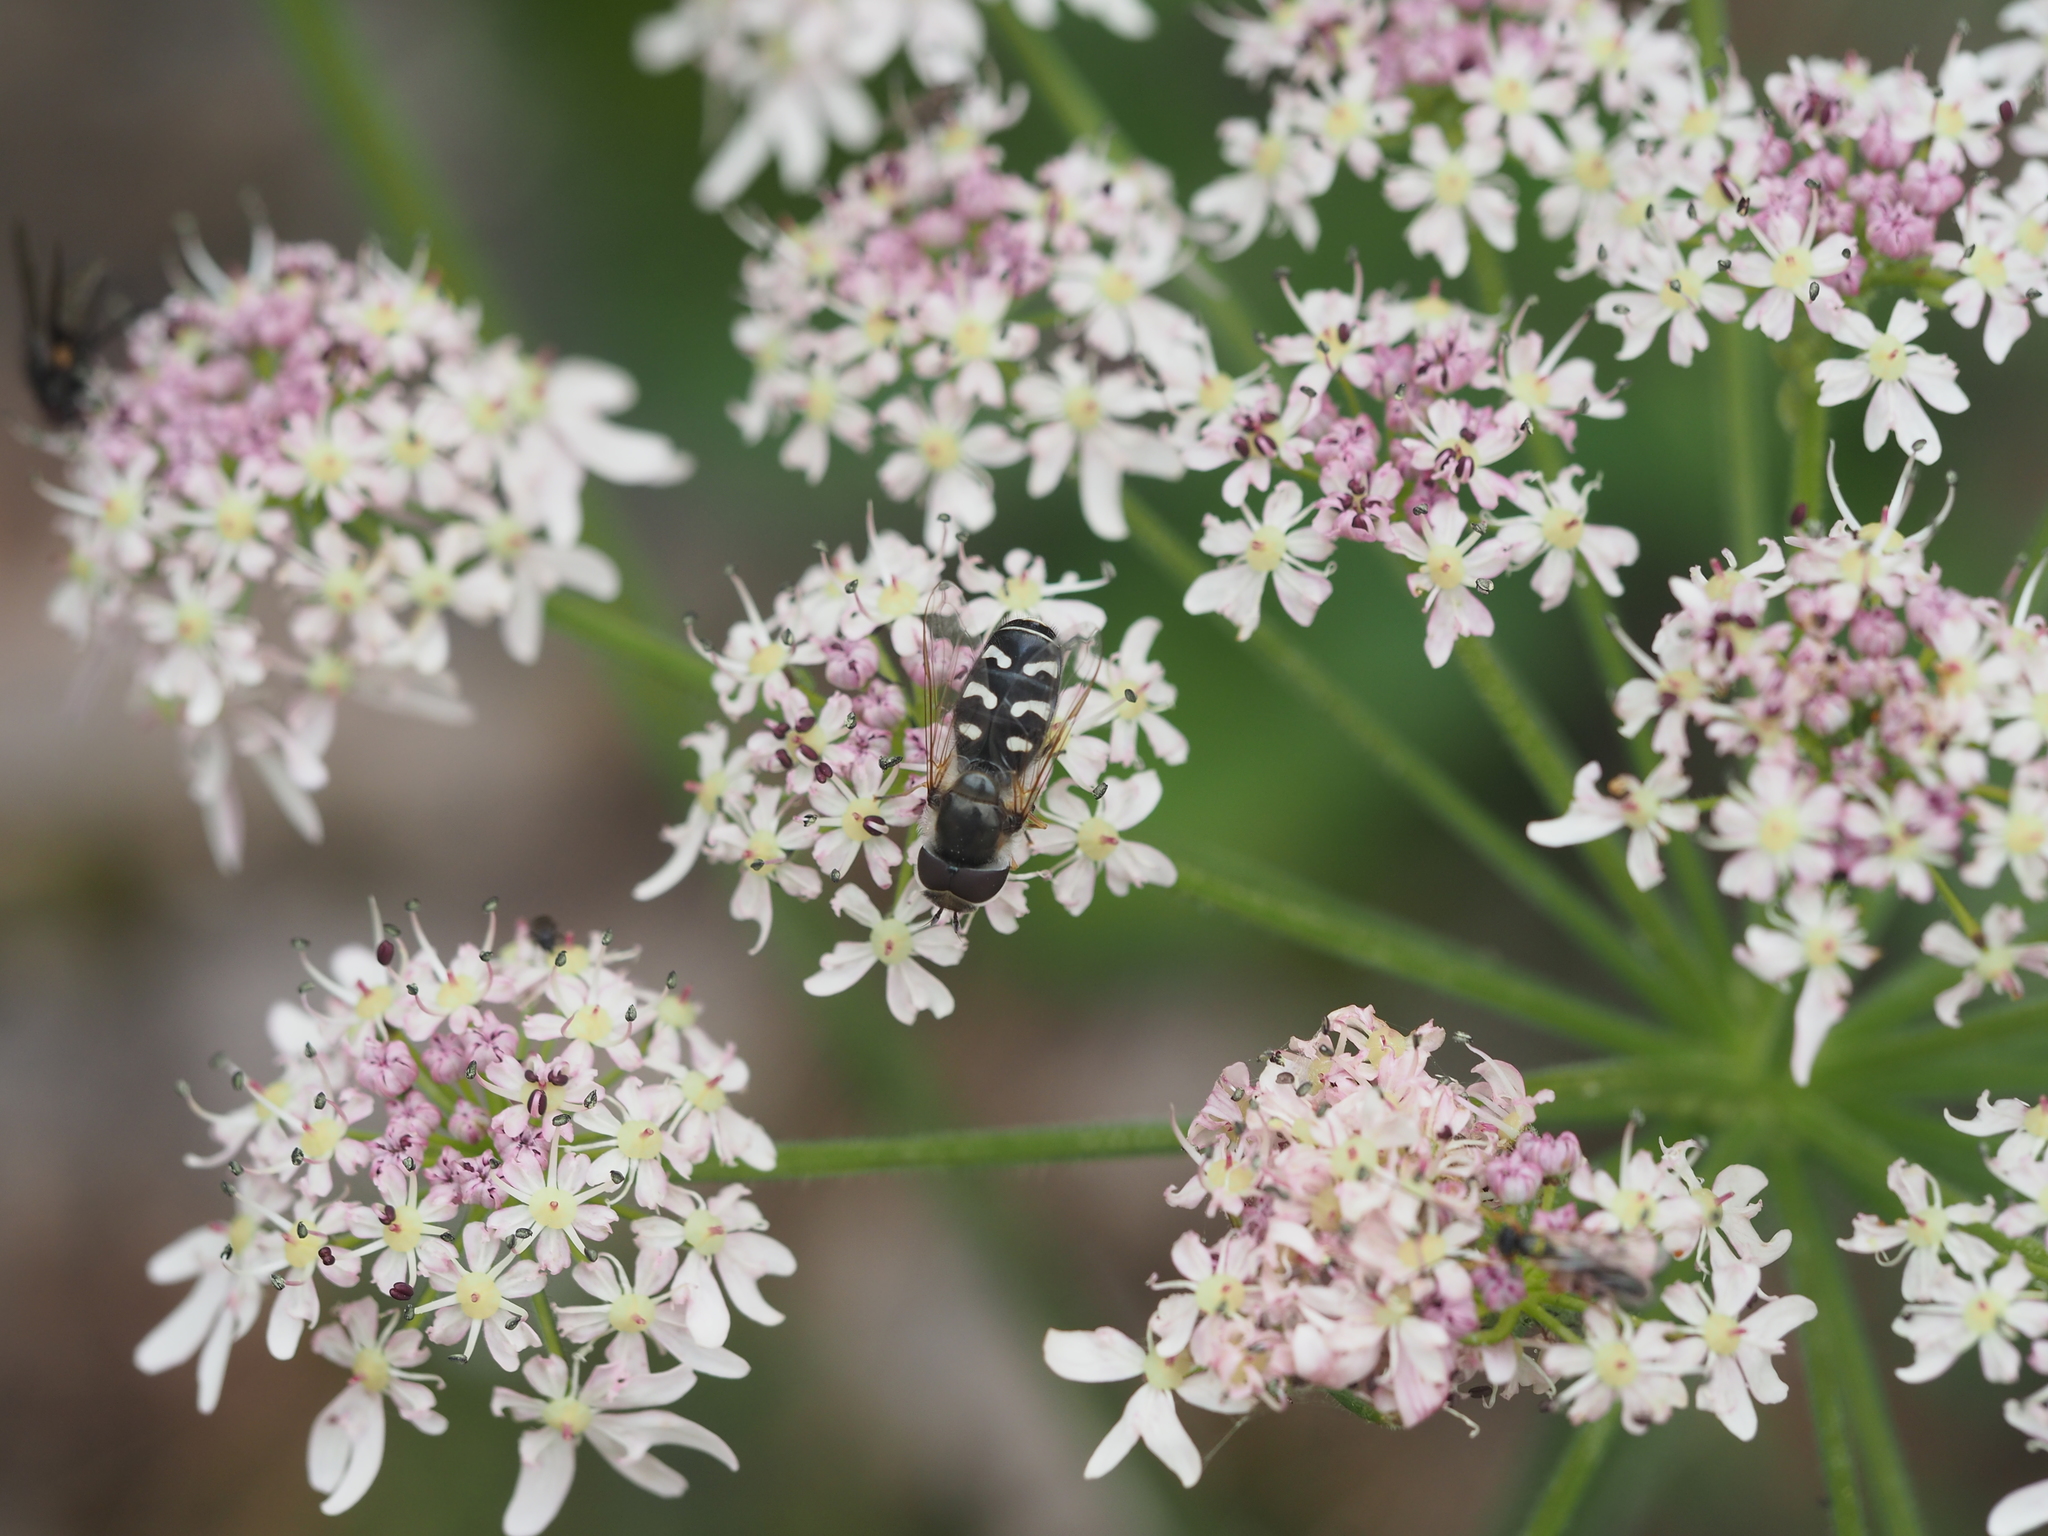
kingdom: Animalia
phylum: Arthropoda
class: Insecta
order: Diptera
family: Syrphidae
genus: Scaeva
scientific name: Scaeva pyrastri
